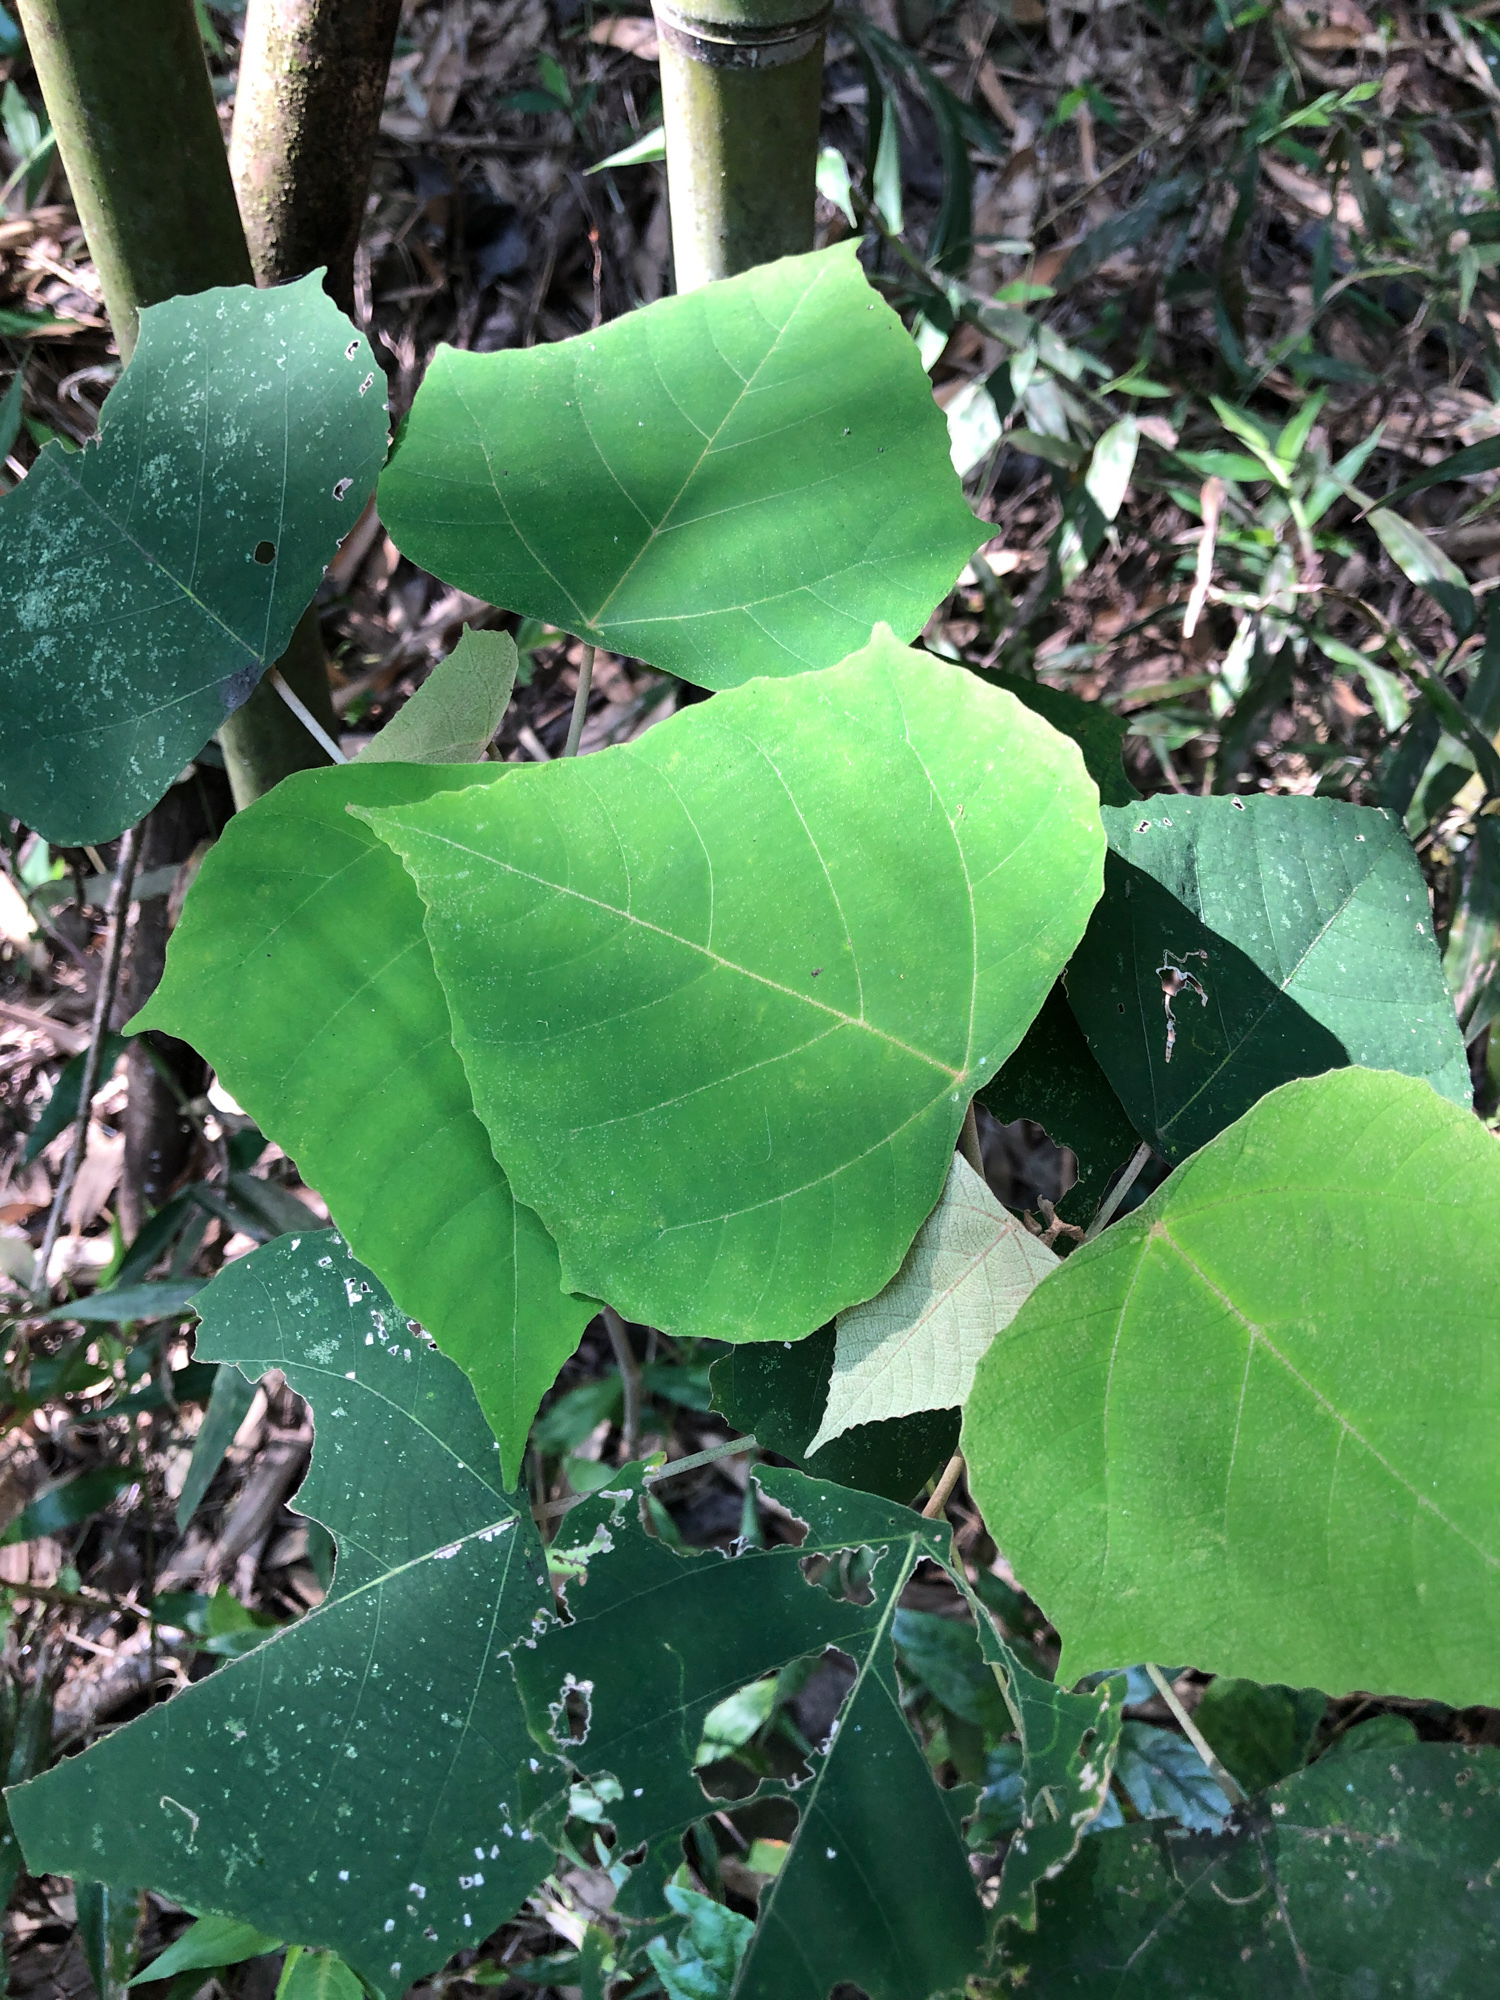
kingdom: Plantae
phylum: Tracheophyta
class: Magnoliopsida
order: Malpighiales
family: Euphorbiaceae
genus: Mallotus
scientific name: Mallotus paniculatus
